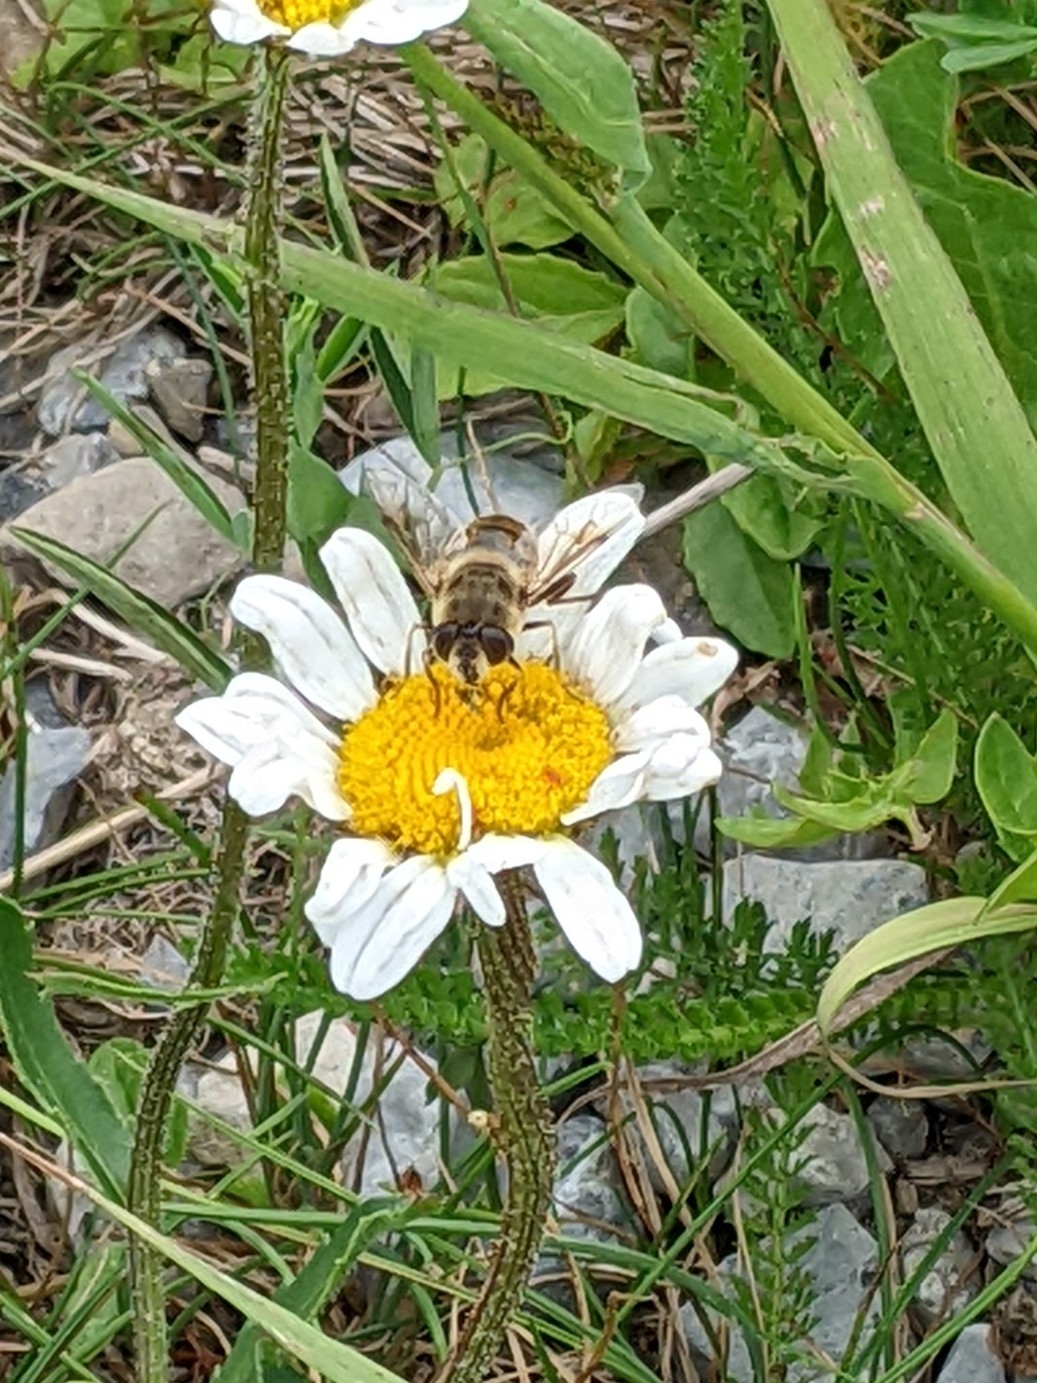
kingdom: Animalia
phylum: Arthropoda
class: Insecta
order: Diptera
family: Syrphidae
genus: Eristalis
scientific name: Eristalis tenax
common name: Drone fly
